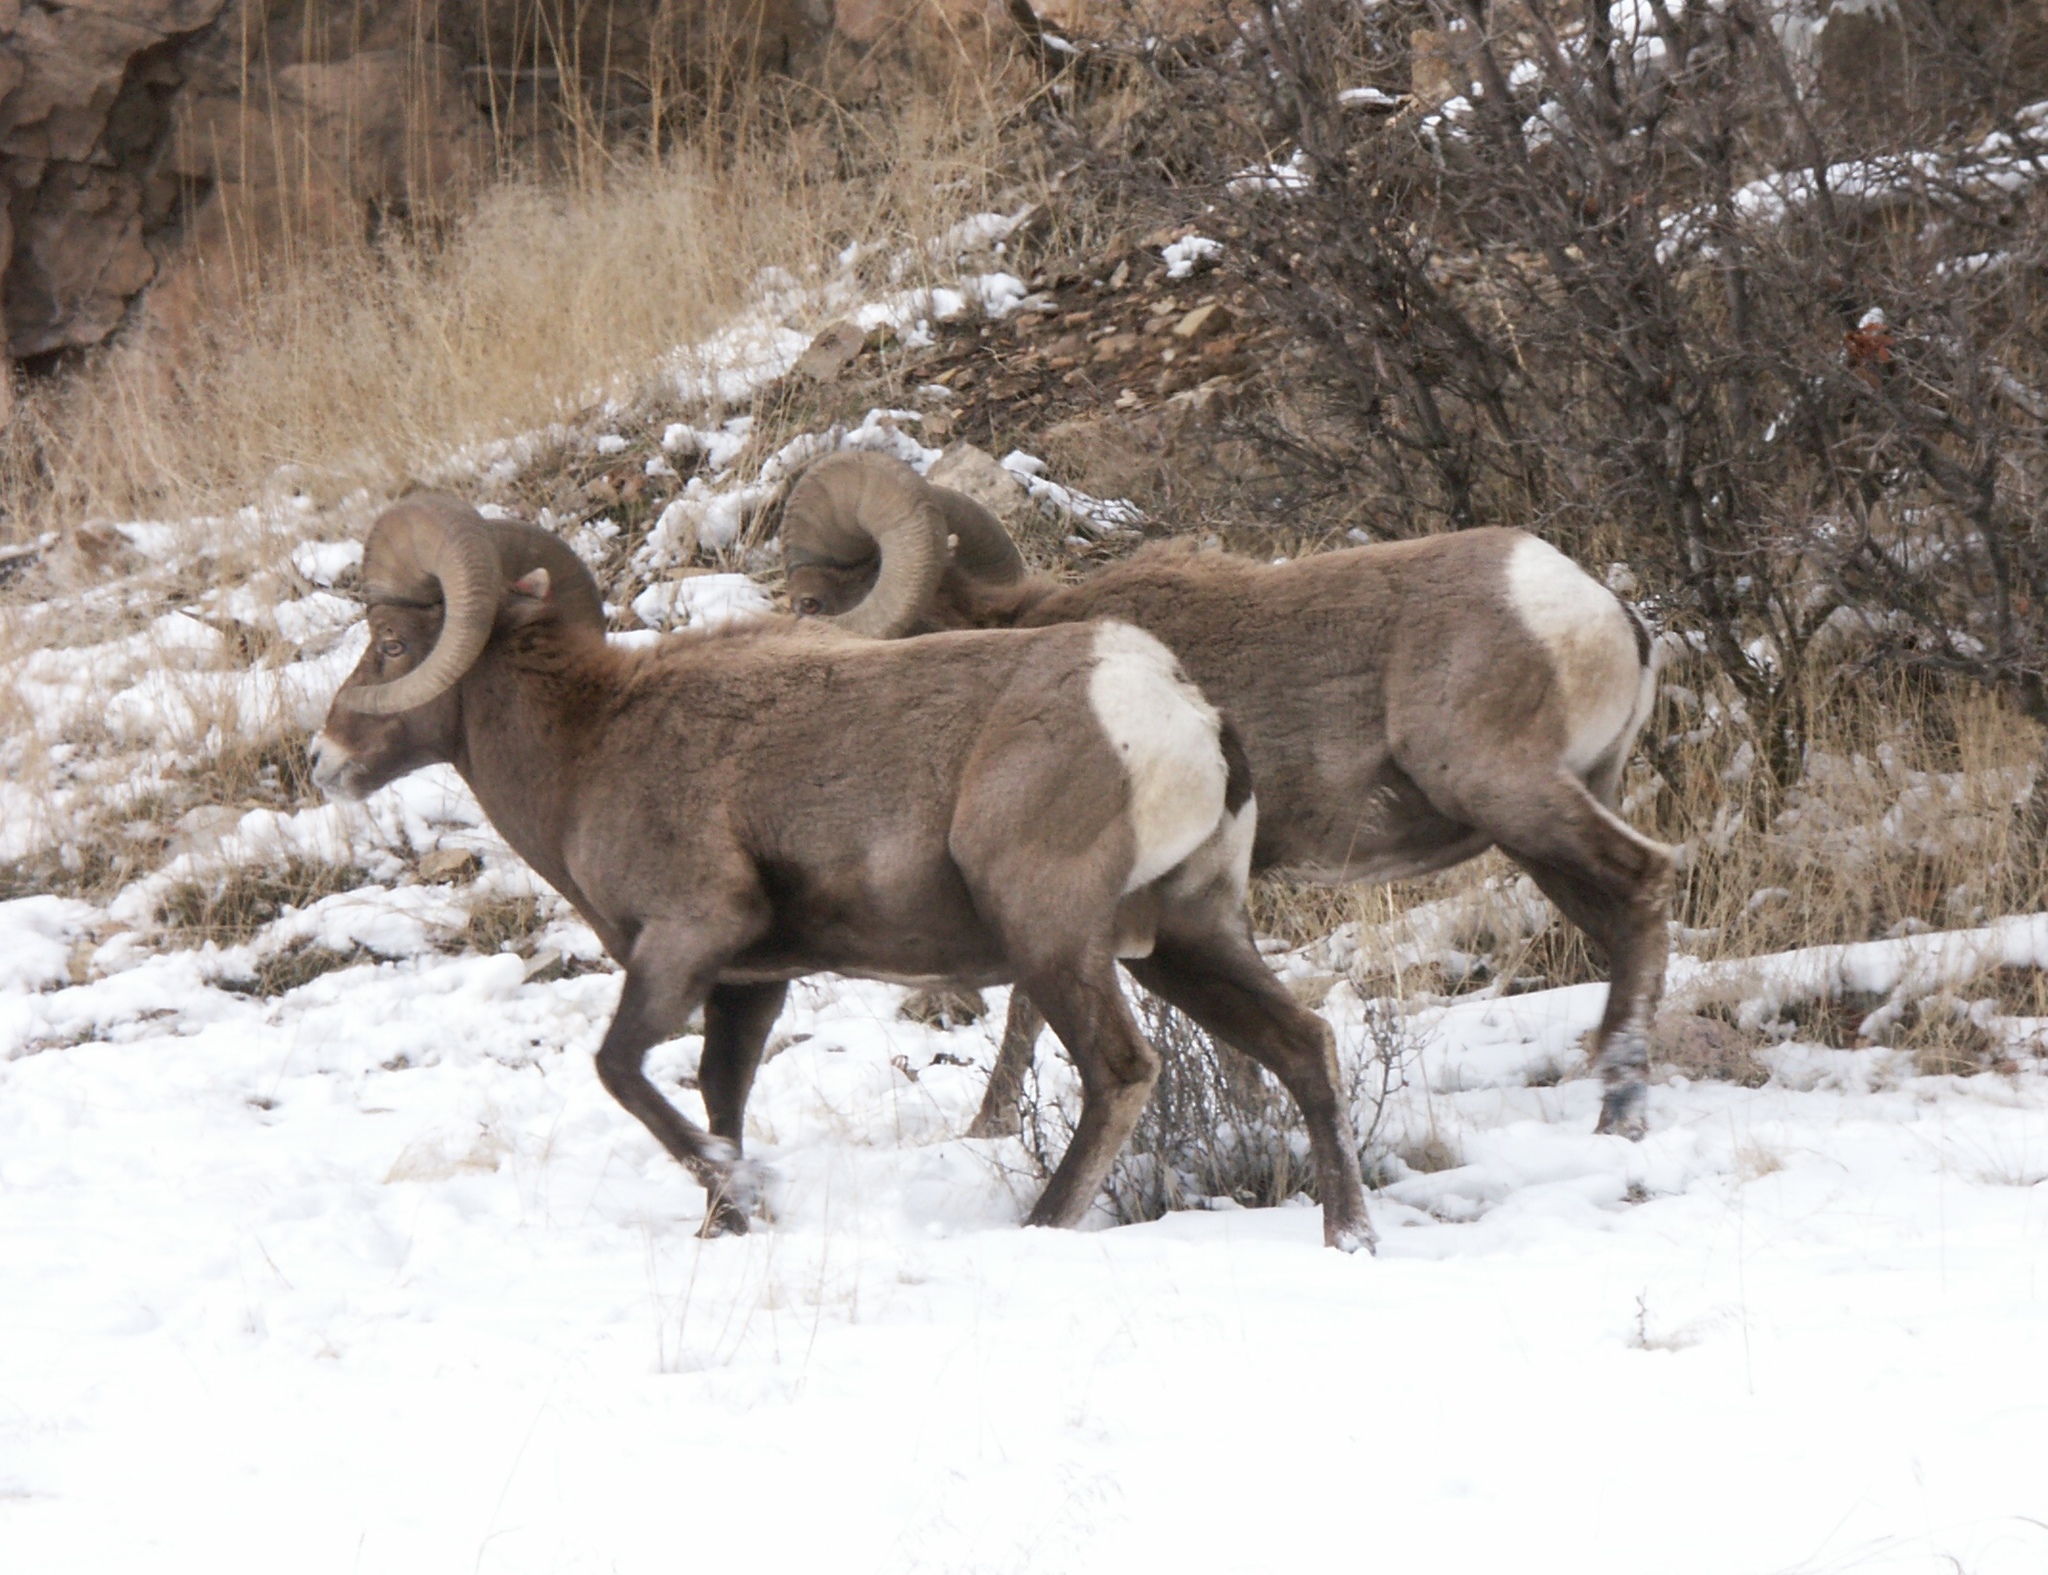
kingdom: Animalia
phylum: Chordata
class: Mammalia
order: Artiodactyla
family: Bovidae
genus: Ovis
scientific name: Ovis canadensis
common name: Bighorn sheep
